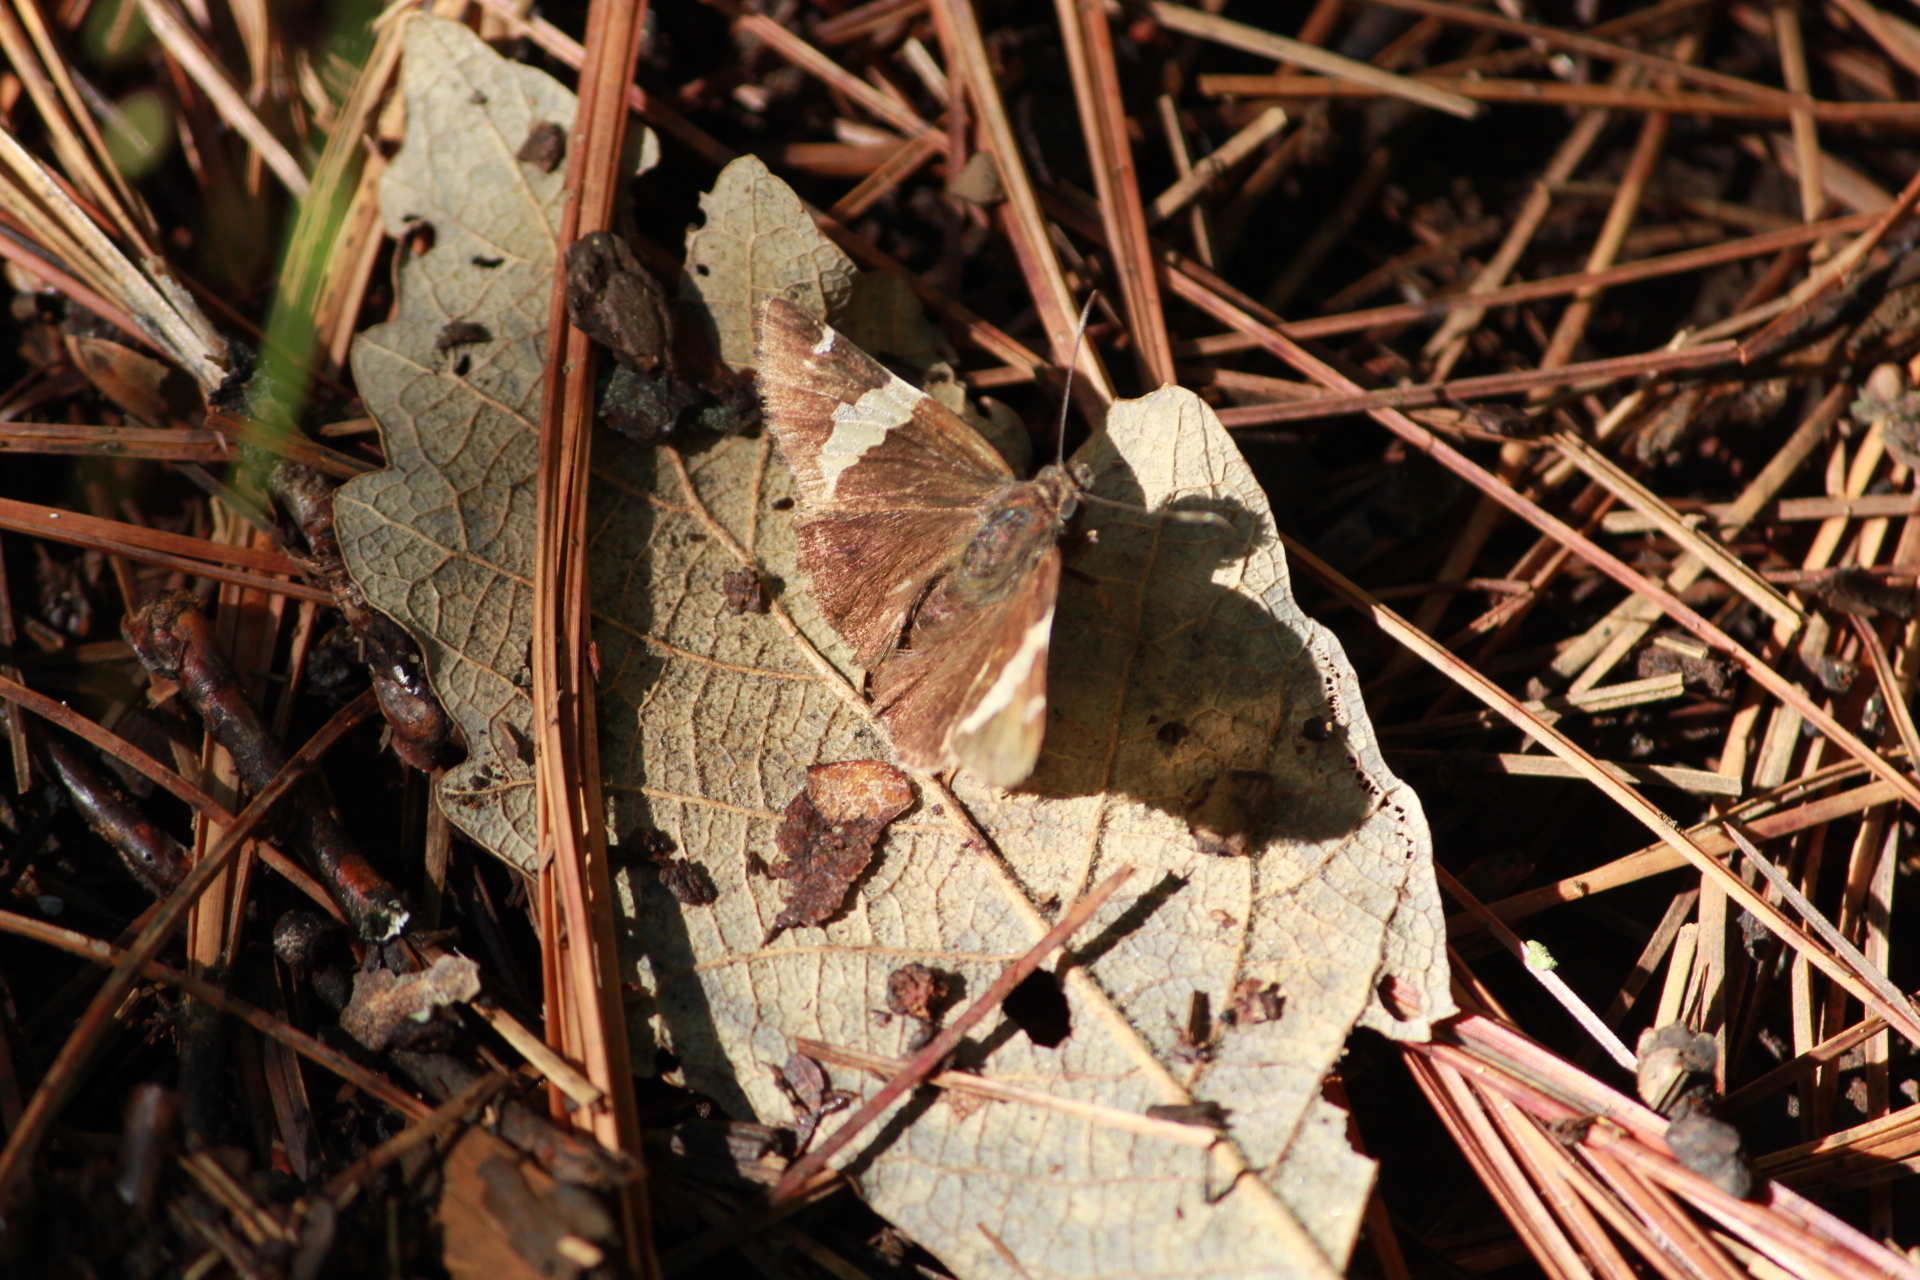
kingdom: Animalia
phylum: Arthropoda
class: Arachnida
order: Scorpiones
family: Bothriuridae
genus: Telegonus
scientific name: Telegonus cellus
